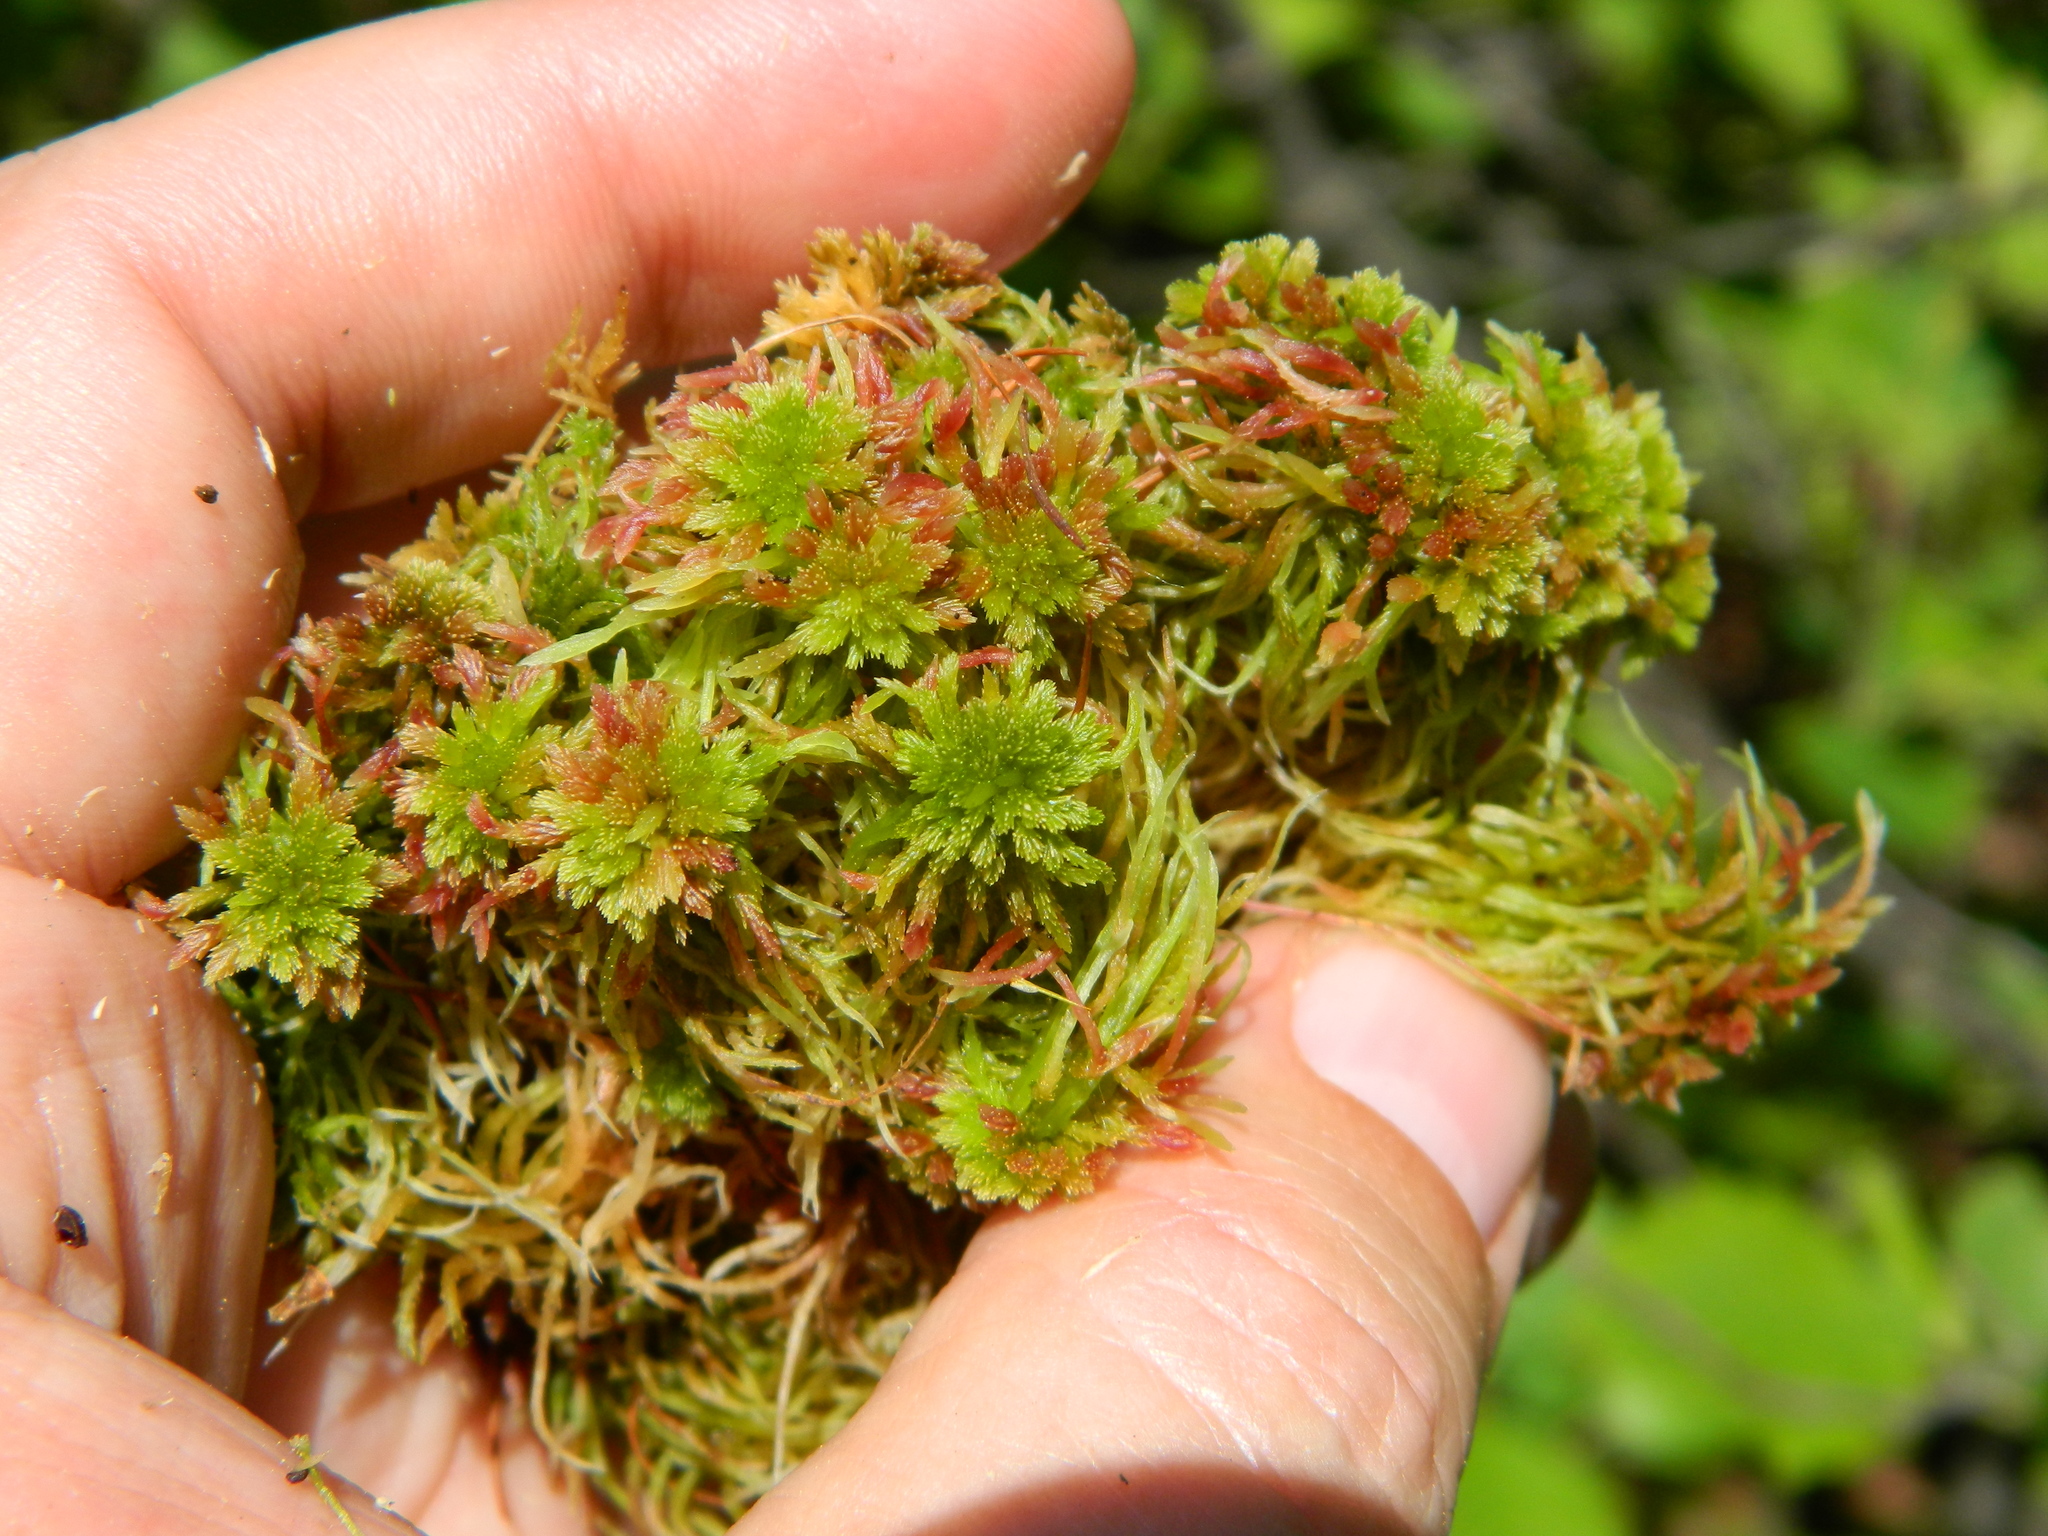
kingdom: Plantae
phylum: Bryophyta
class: Sphagnopsida
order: Sphagnales
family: Sphagnaceae
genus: Sphagnum
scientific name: Sphagnum capillifolium
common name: Small red peat moss
